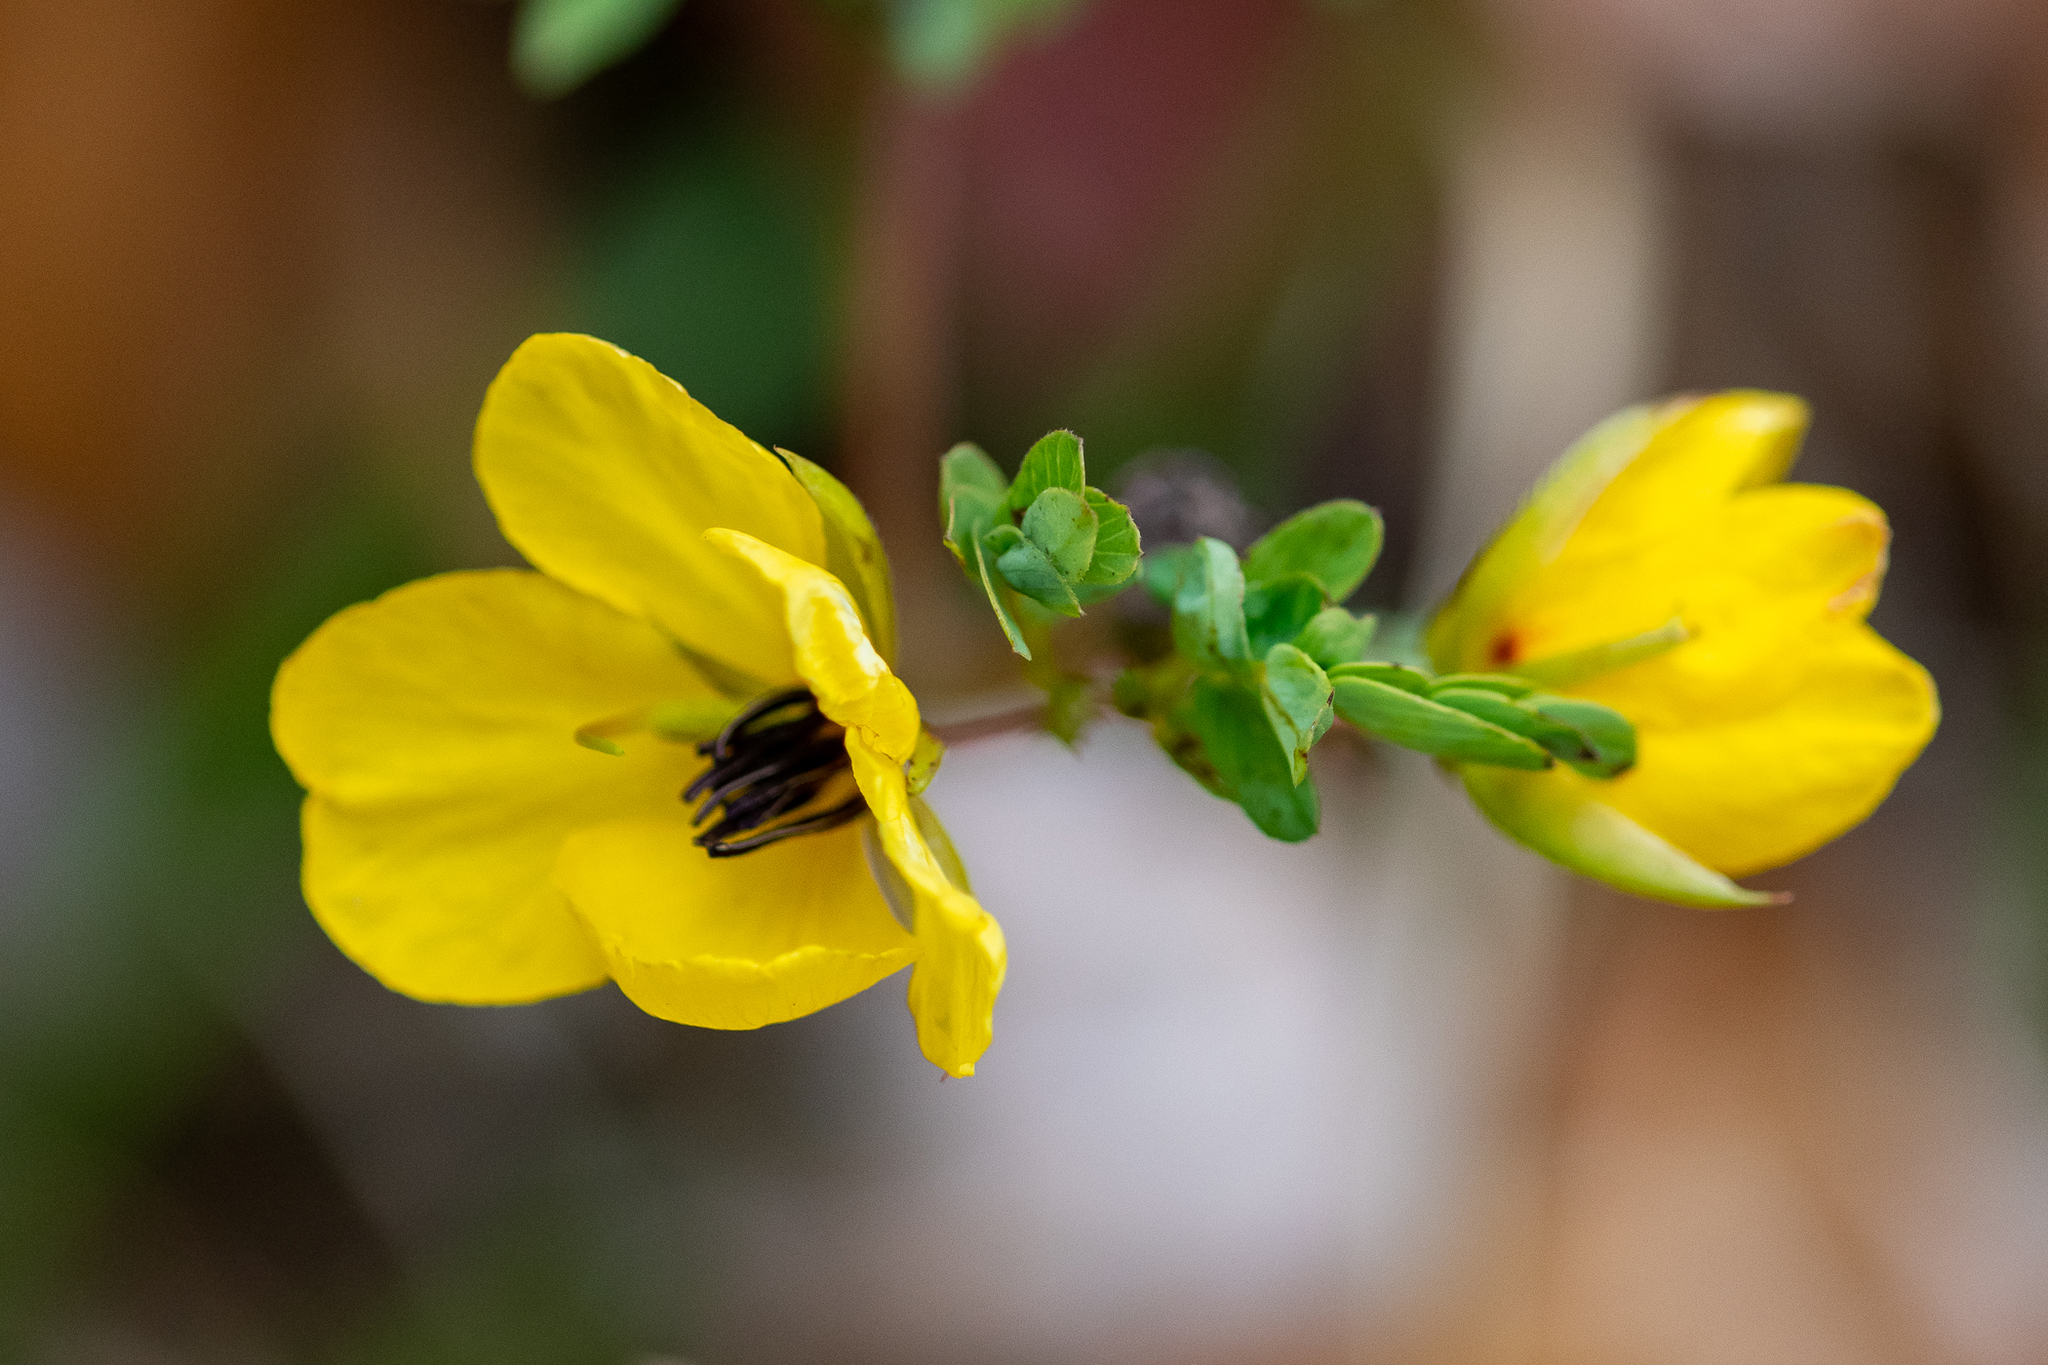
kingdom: Plantae
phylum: Tracheophyta
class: Magnoliopsida
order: Fabales
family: Fabaceae
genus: Chamaecrista
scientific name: Chamaecrista fasciculata
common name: Golden cassia
